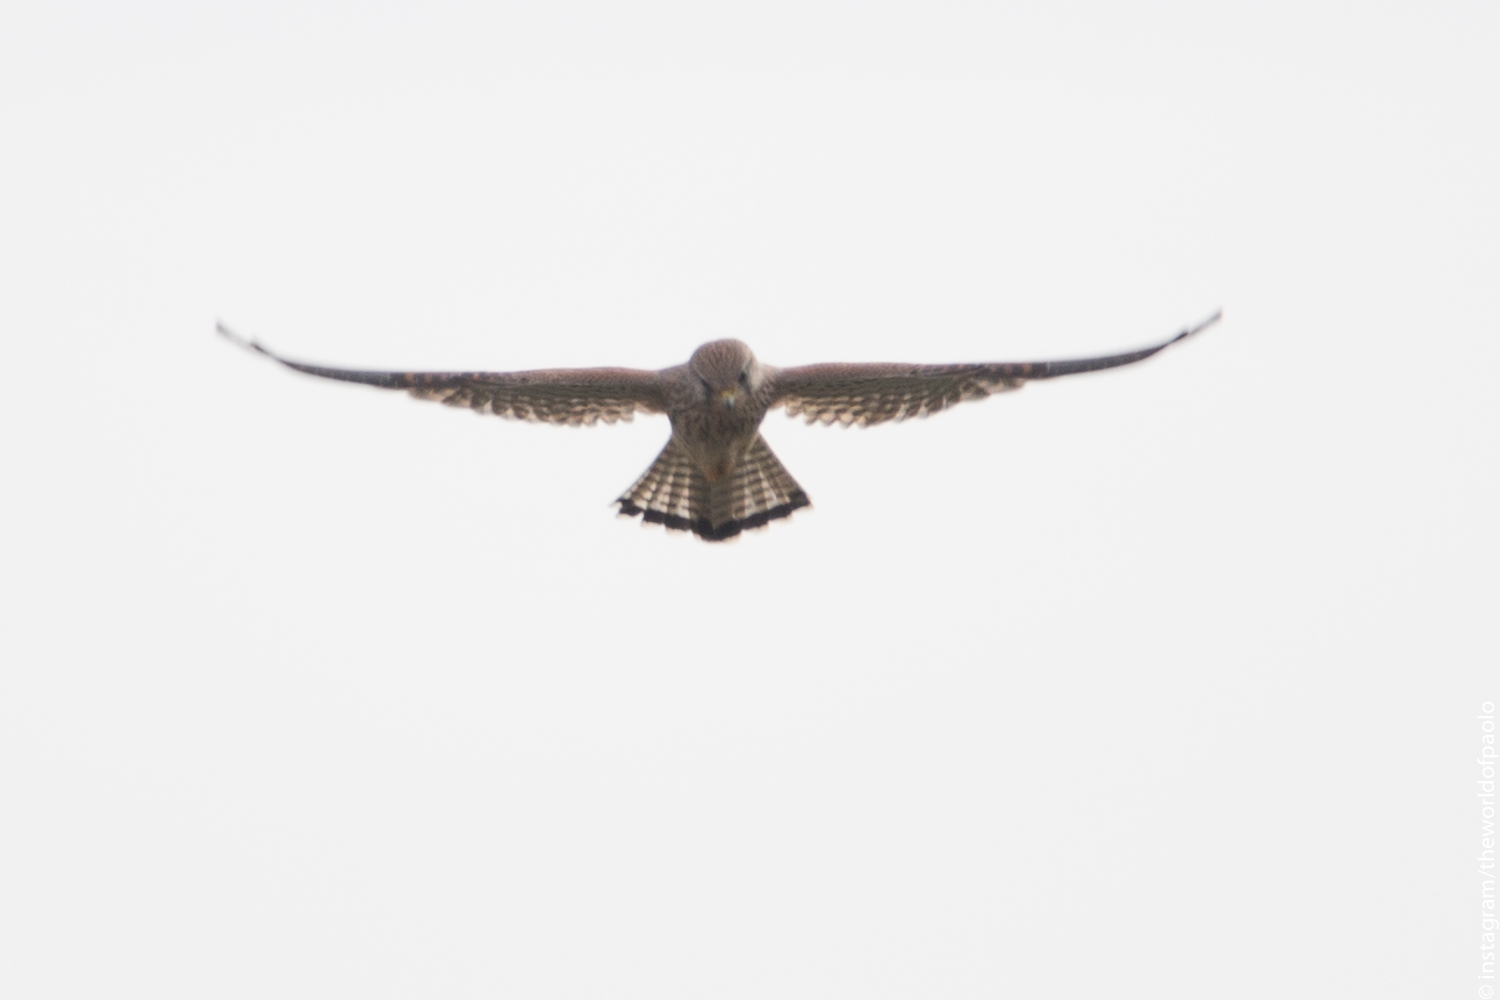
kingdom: Animalia
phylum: Chordata
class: Aves
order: Falconiformes
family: Falconidae
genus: Falco
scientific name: Falco tinnunculus
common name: Common kestrel
